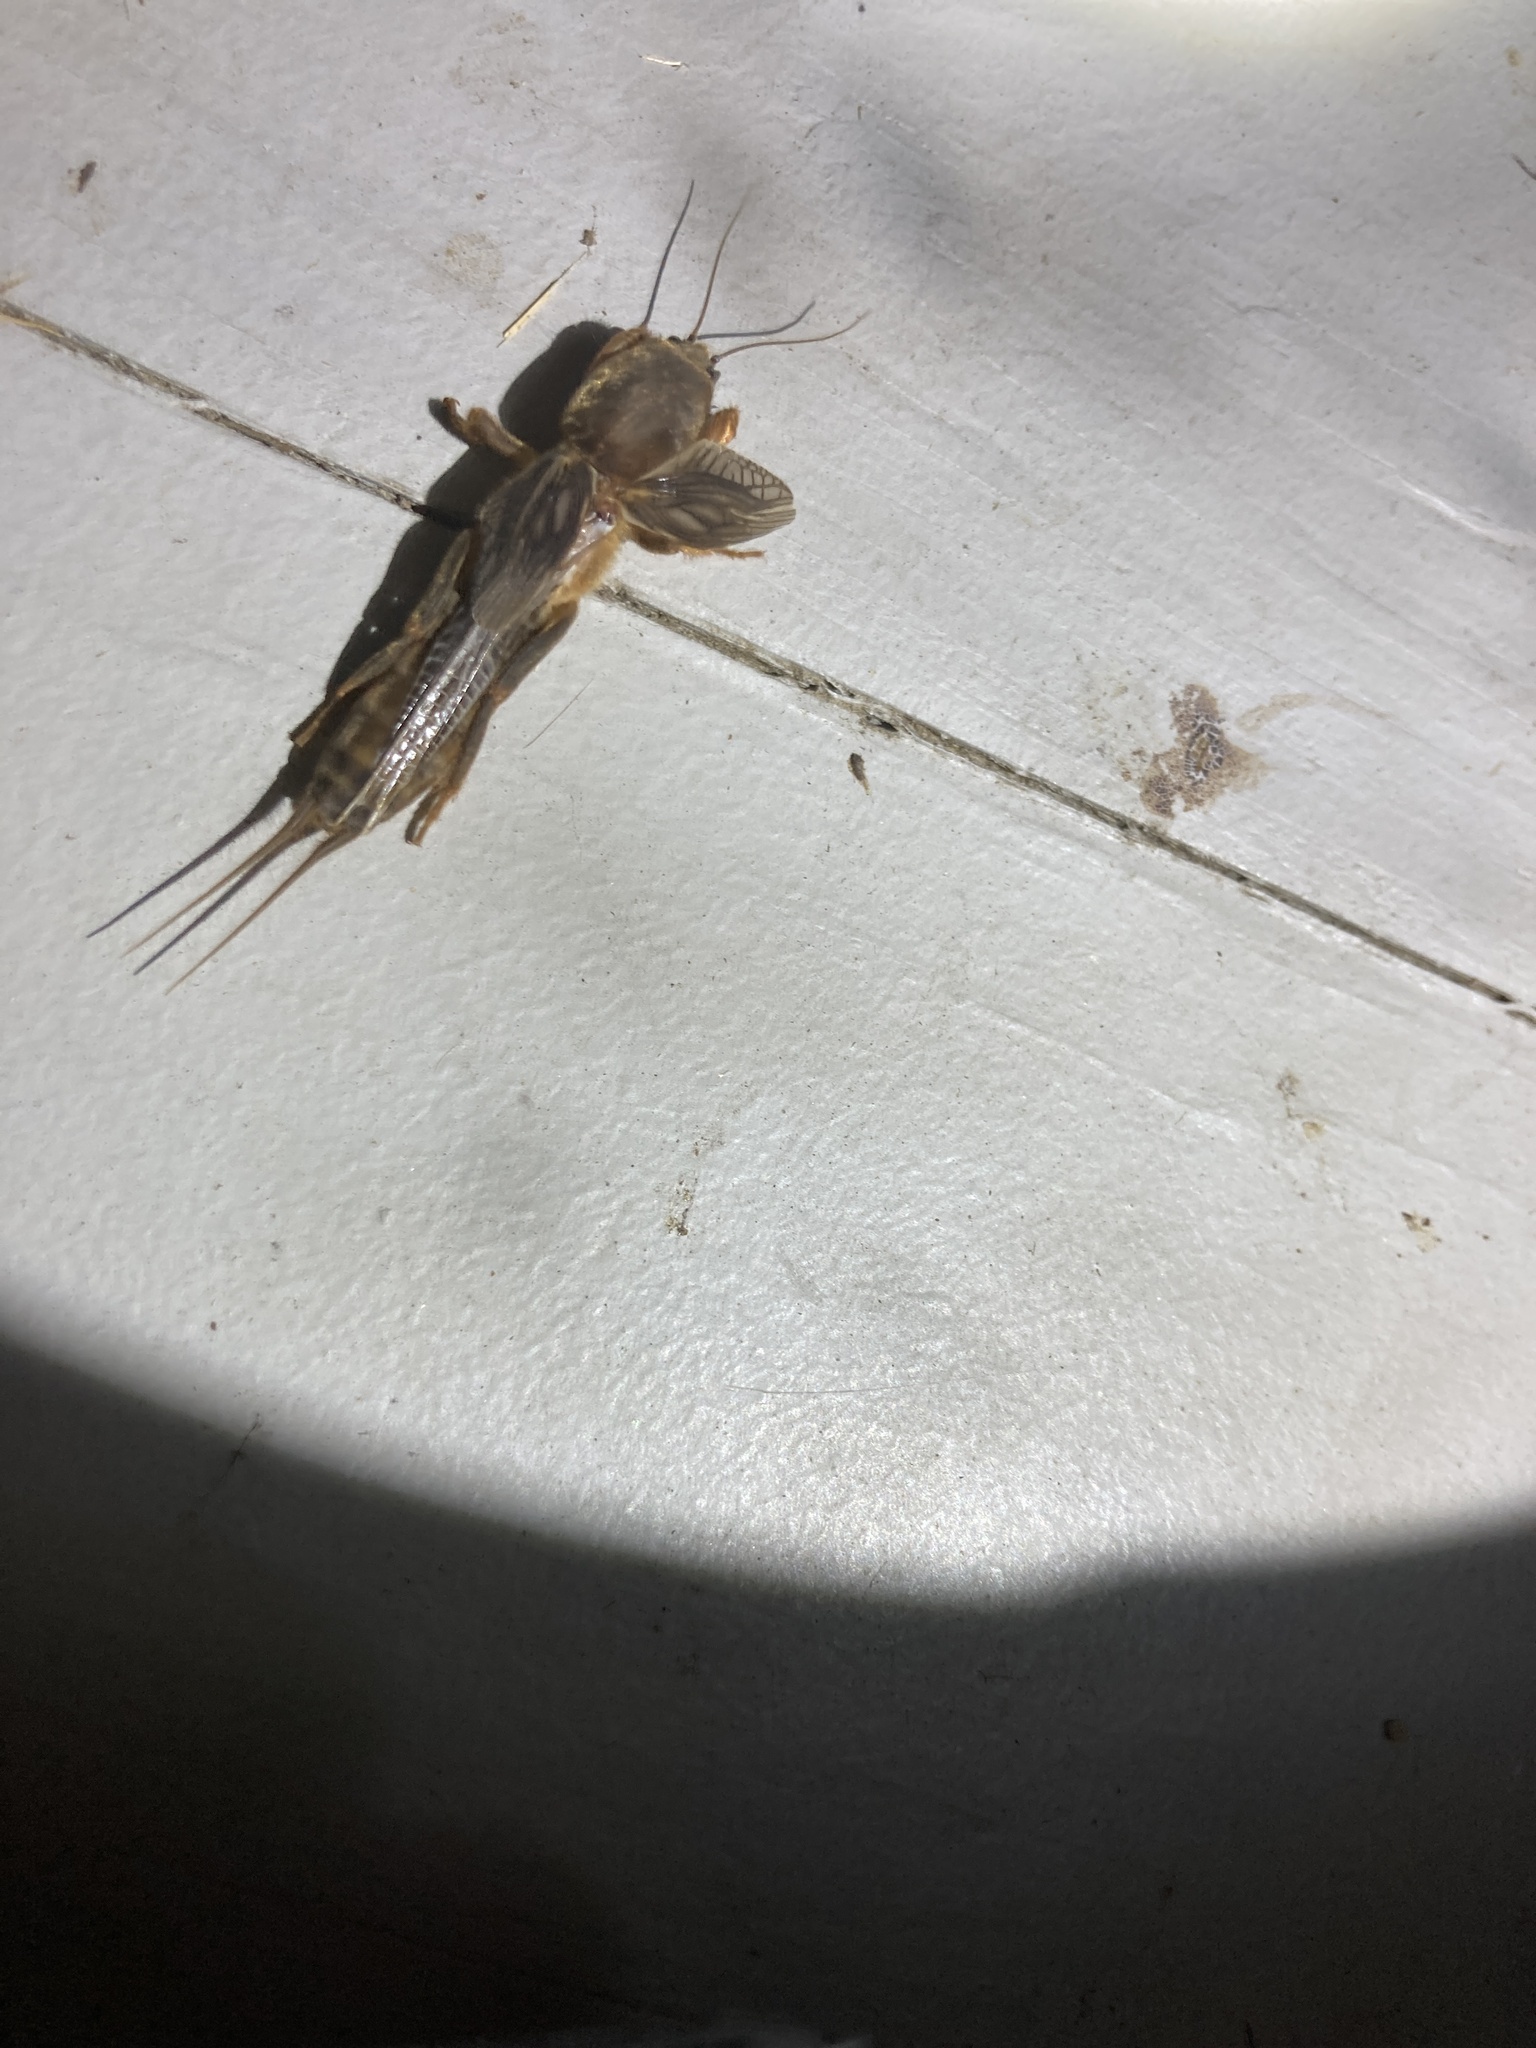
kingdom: Animalia
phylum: Arthropoda
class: Insecta
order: Orthoptera
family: Gryllotalpidae
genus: Neocurtilla
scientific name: Neocurtilla hexadactyla
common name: Northern mole cricket
